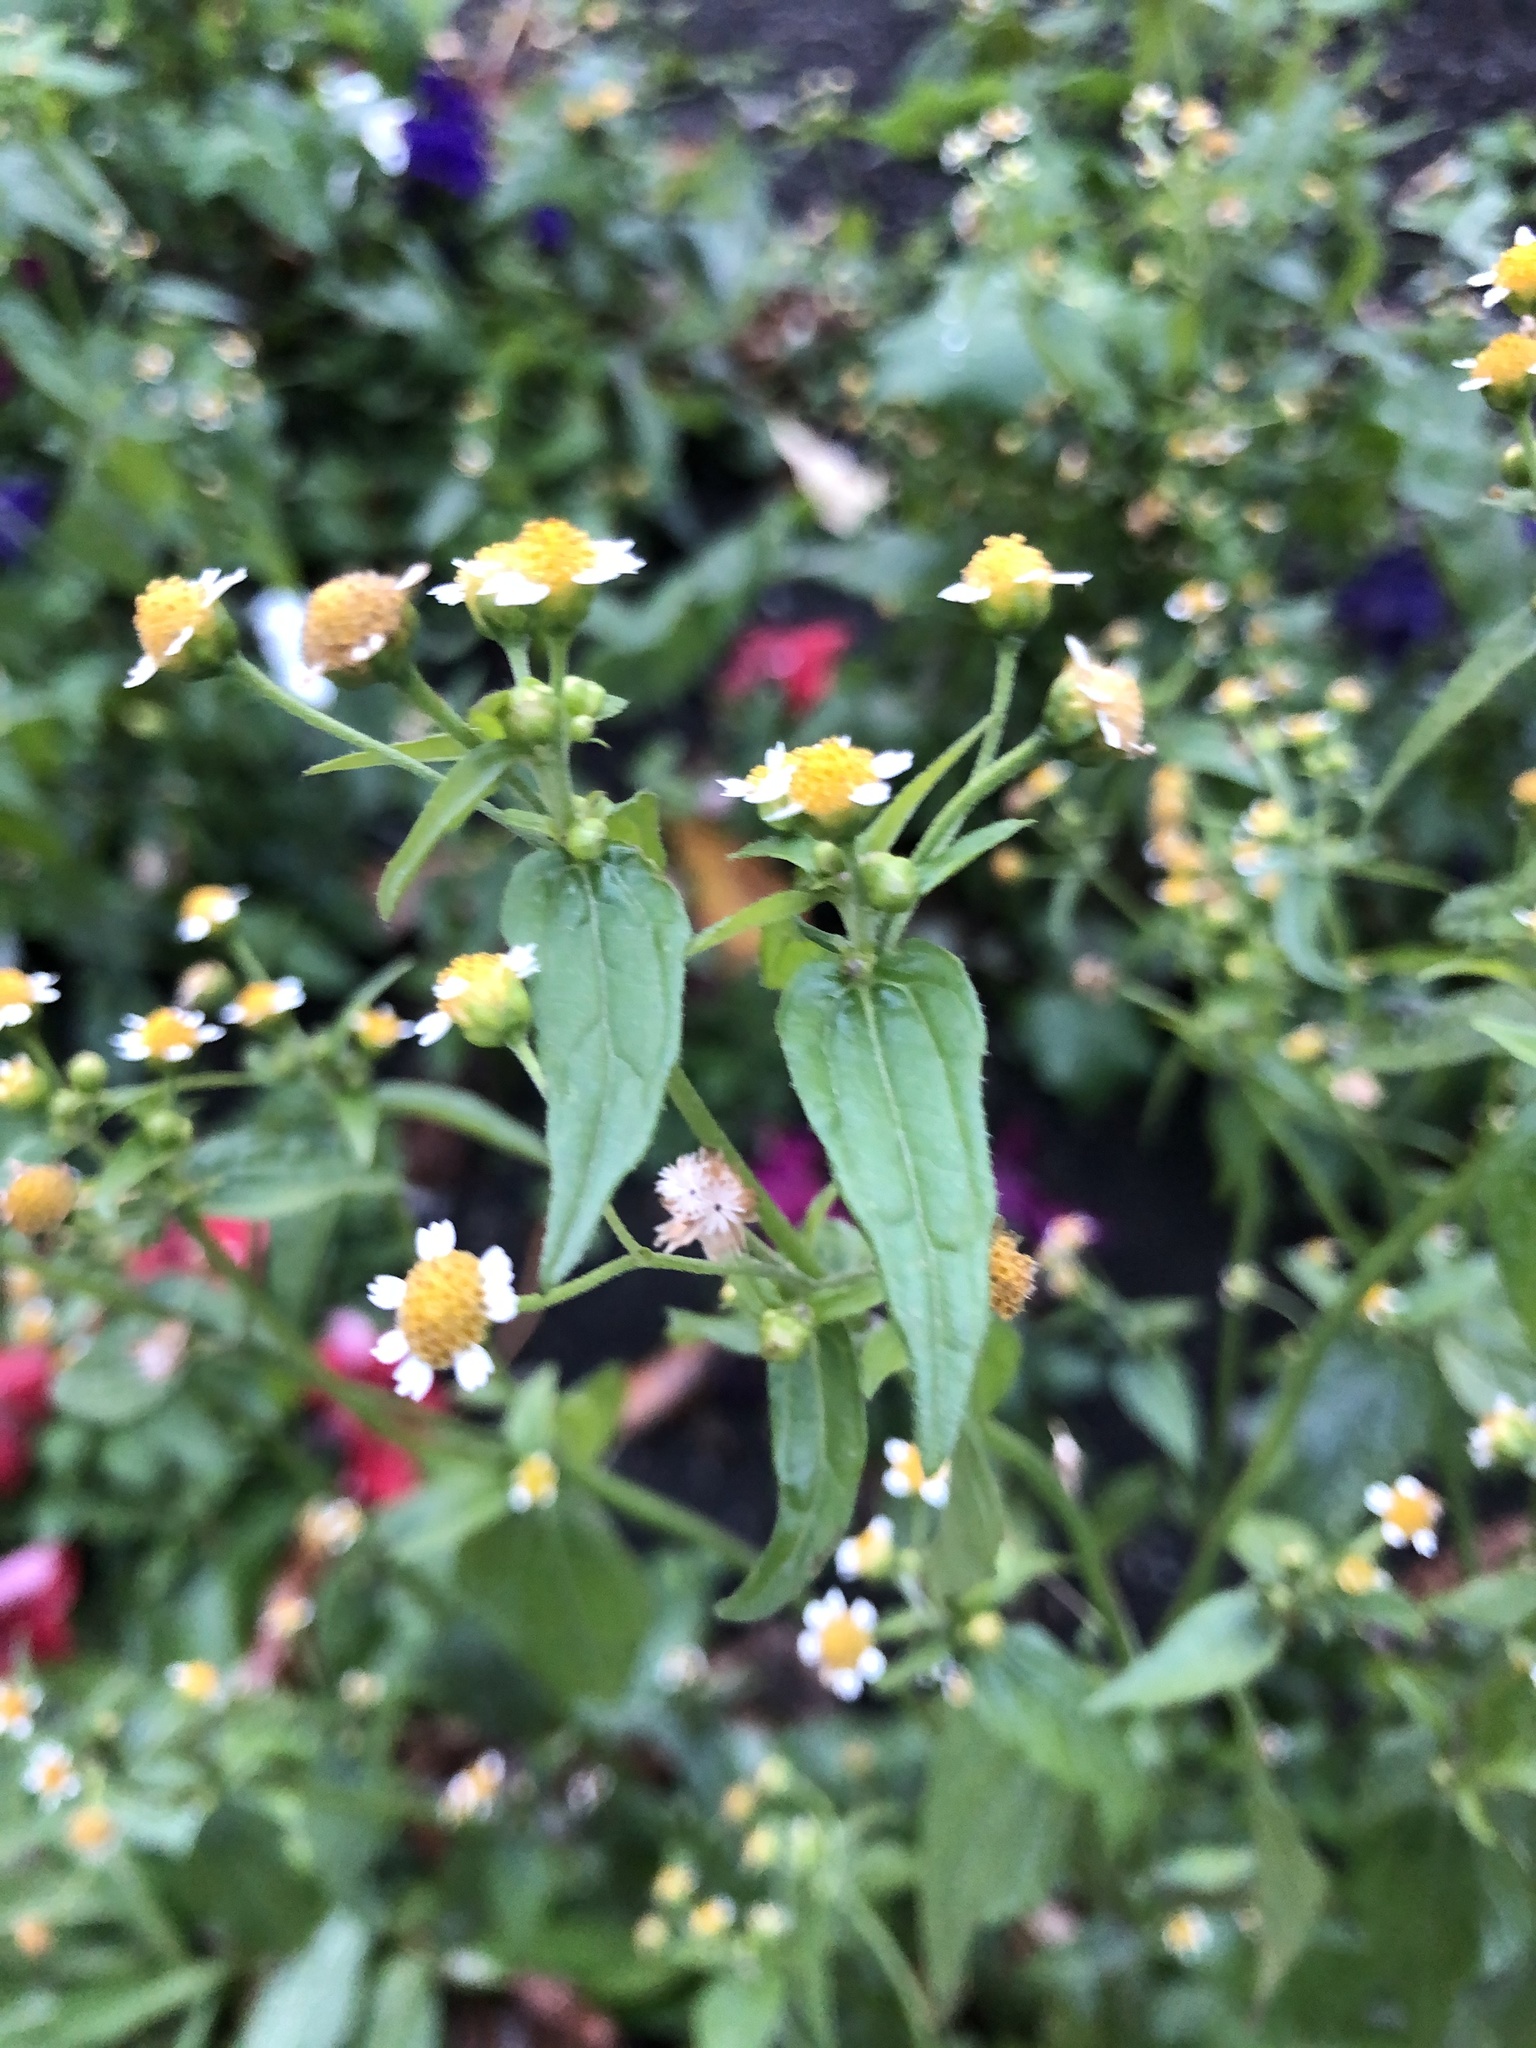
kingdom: Plantae
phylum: Tracheophyta
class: Magnoliopsida
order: Asterales
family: Asteraceae
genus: Galinsoga
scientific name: Galinsoga parviflora
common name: Gallant soldier
